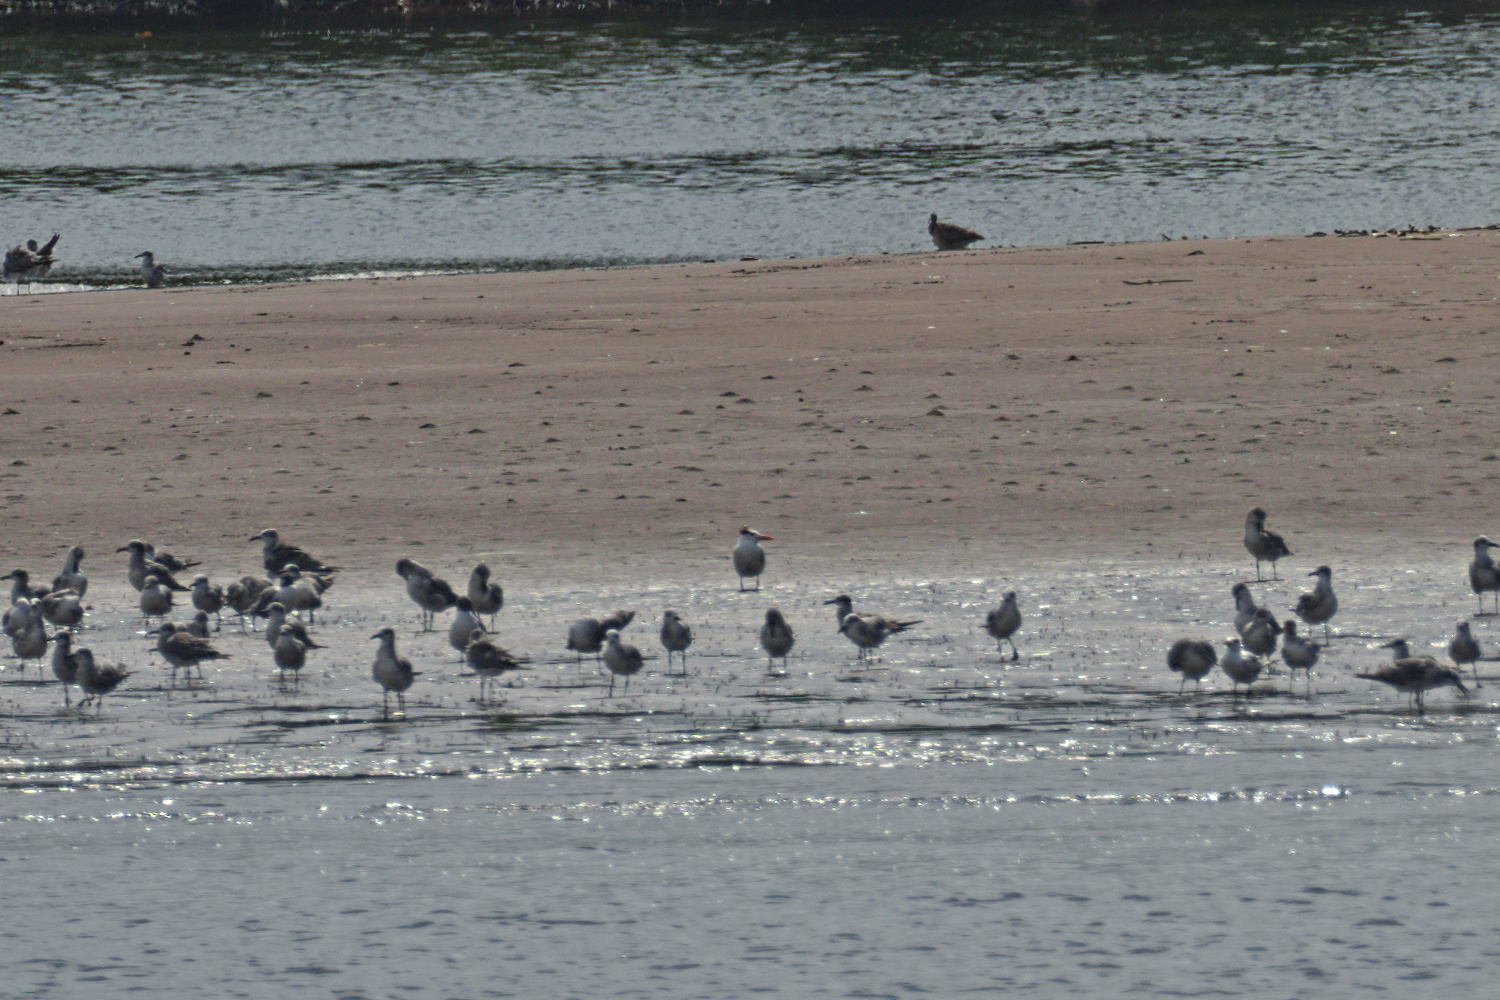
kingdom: Animalia
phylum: Chordata
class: Aves
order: Charadriiformes
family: Laridae
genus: Thalasseus
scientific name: Thalasseus maximus
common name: Royal tern
